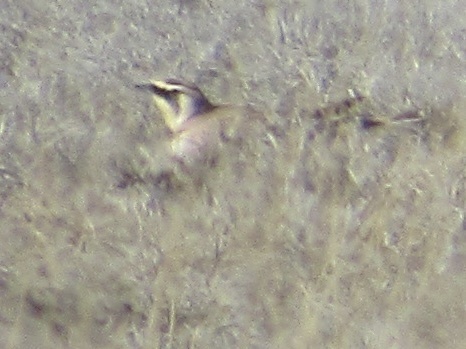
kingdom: Animalia
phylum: Chordata
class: Aves
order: Passeriformes
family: Alaudidae
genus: Eremophila
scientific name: Eremophila alpestris
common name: Horned lark
